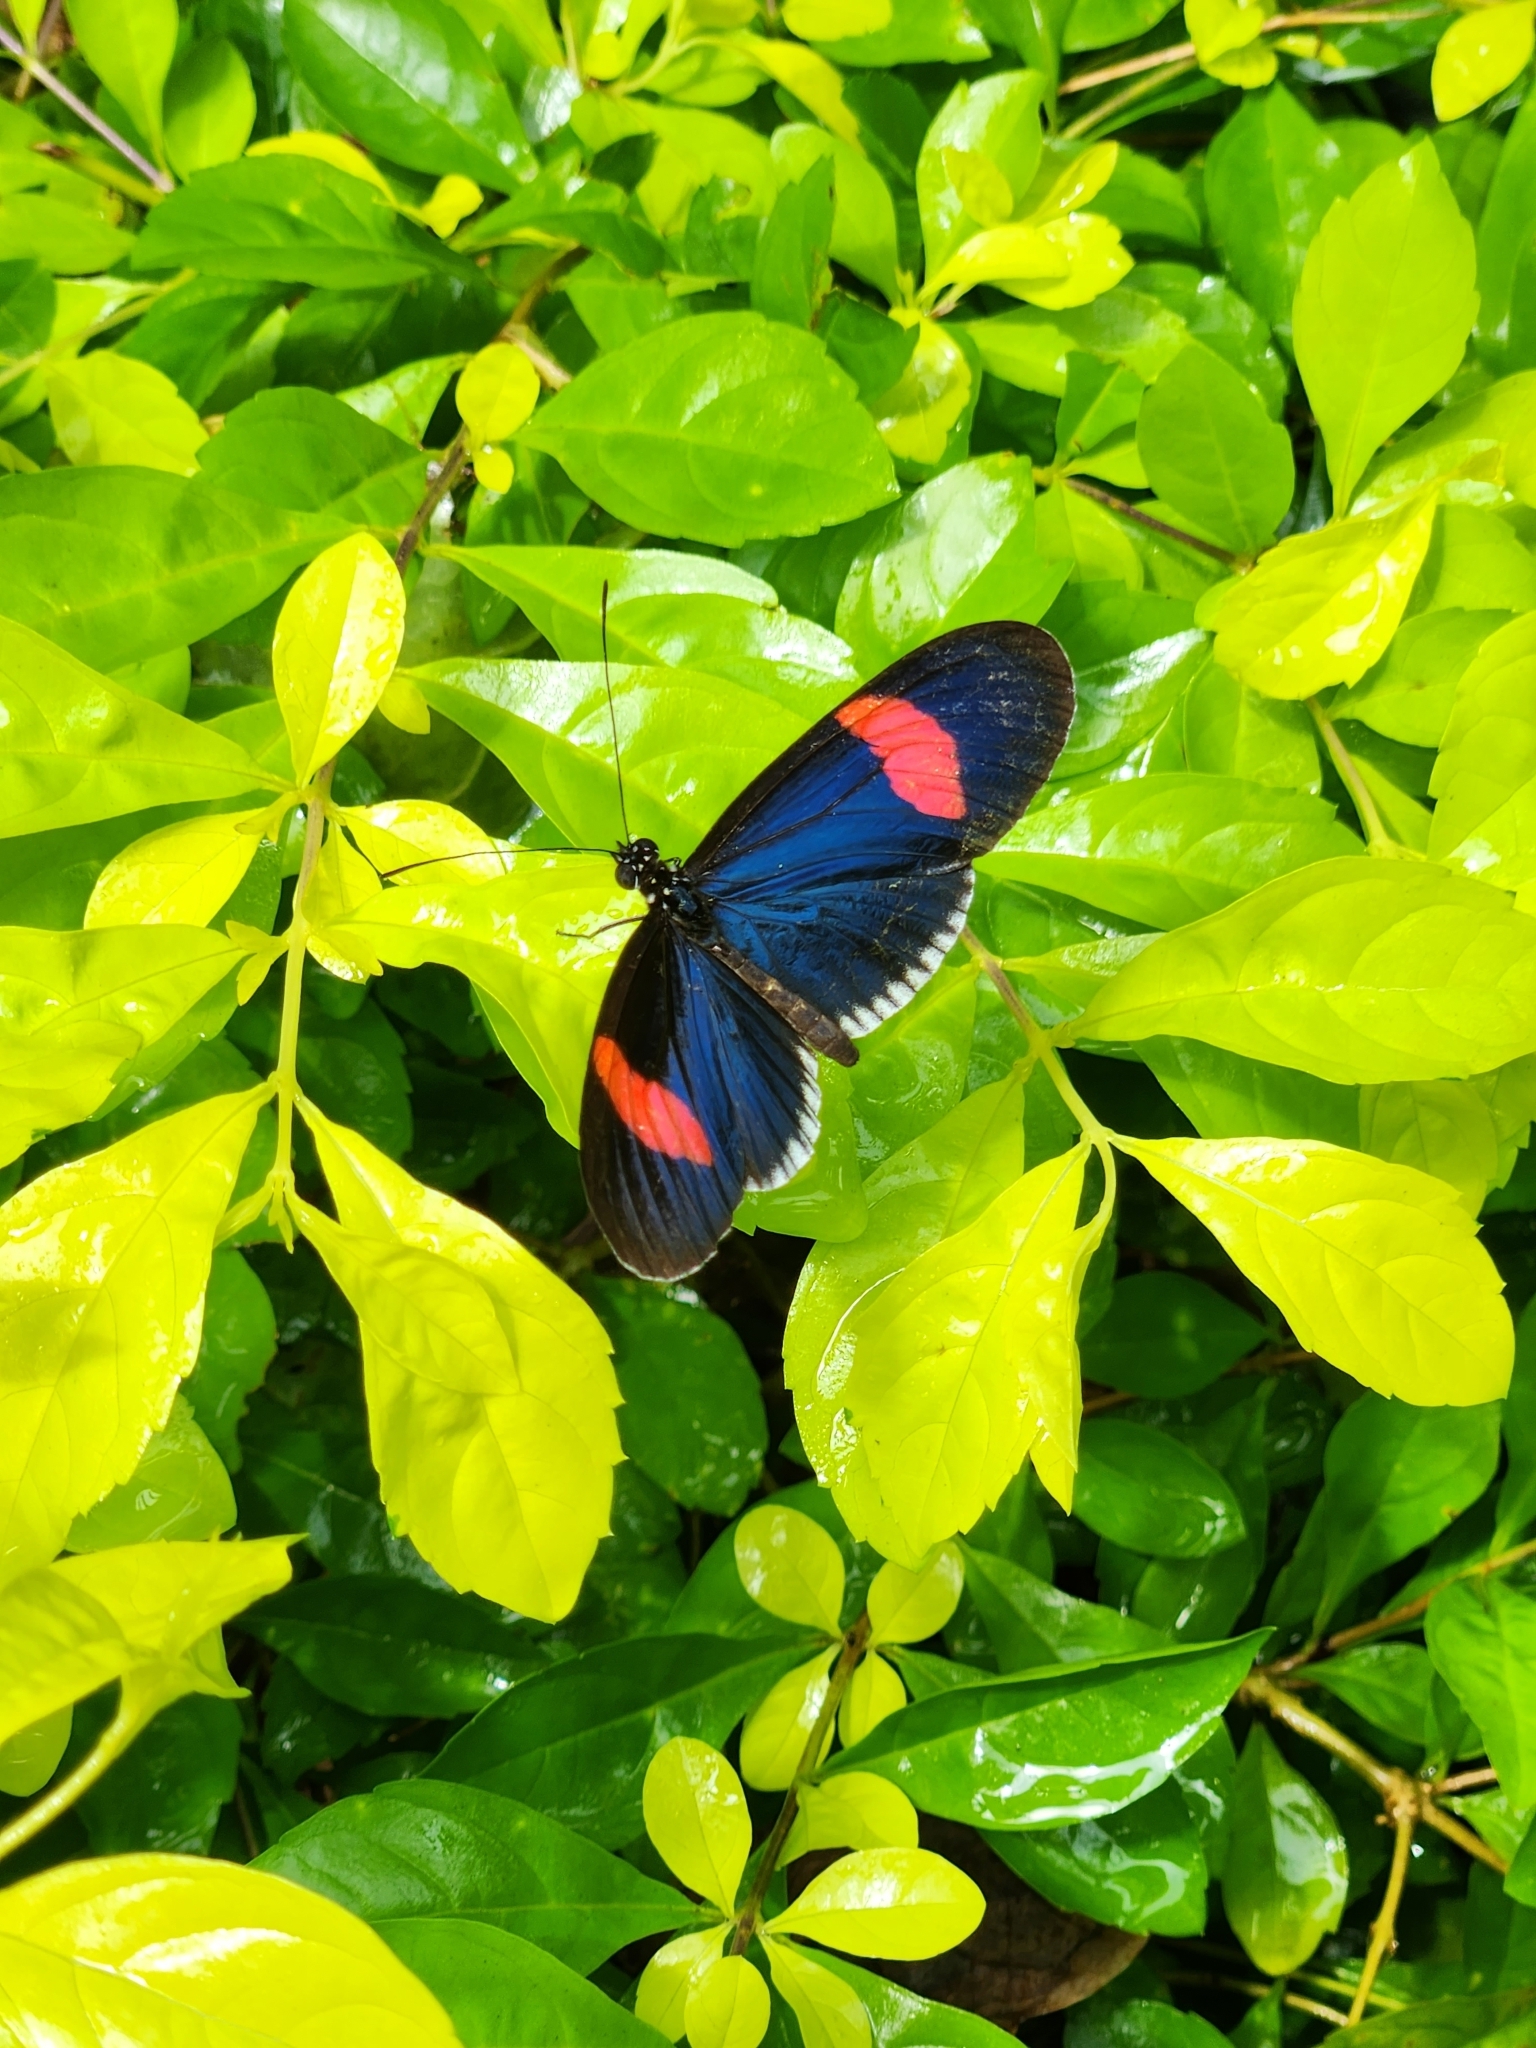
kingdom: Animalia
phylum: Arthropoda
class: Insecta
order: Lepidoptera
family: Nymphalidae
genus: Heliconius
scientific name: Heliconius erato
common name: Common patch longwing
